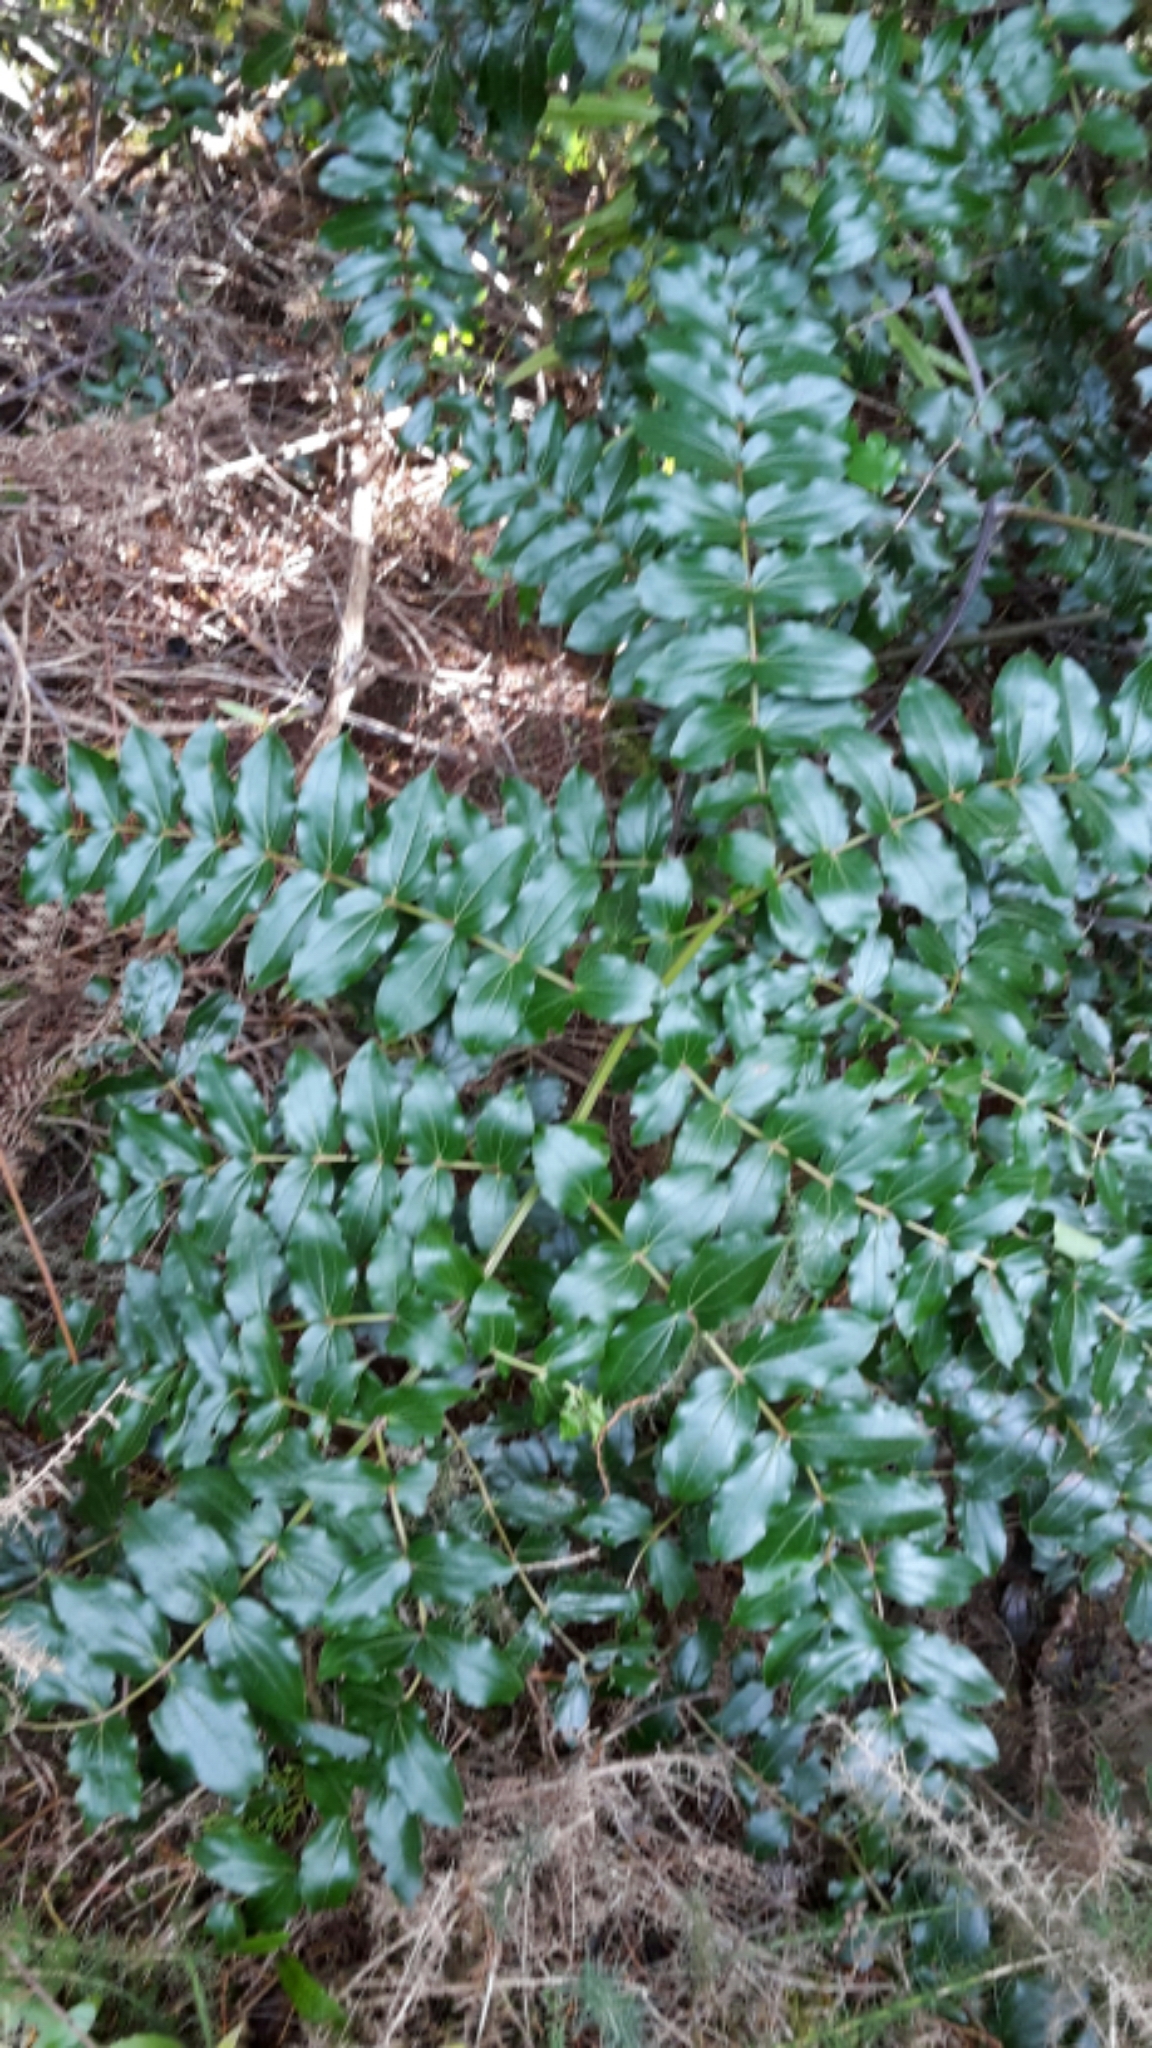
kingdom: Plantae
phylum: Tracheophyta
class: Magnoliopsida
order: Cucurbitales
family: Coriariaceae
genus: Coriaria
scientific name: Coriaria arborea
